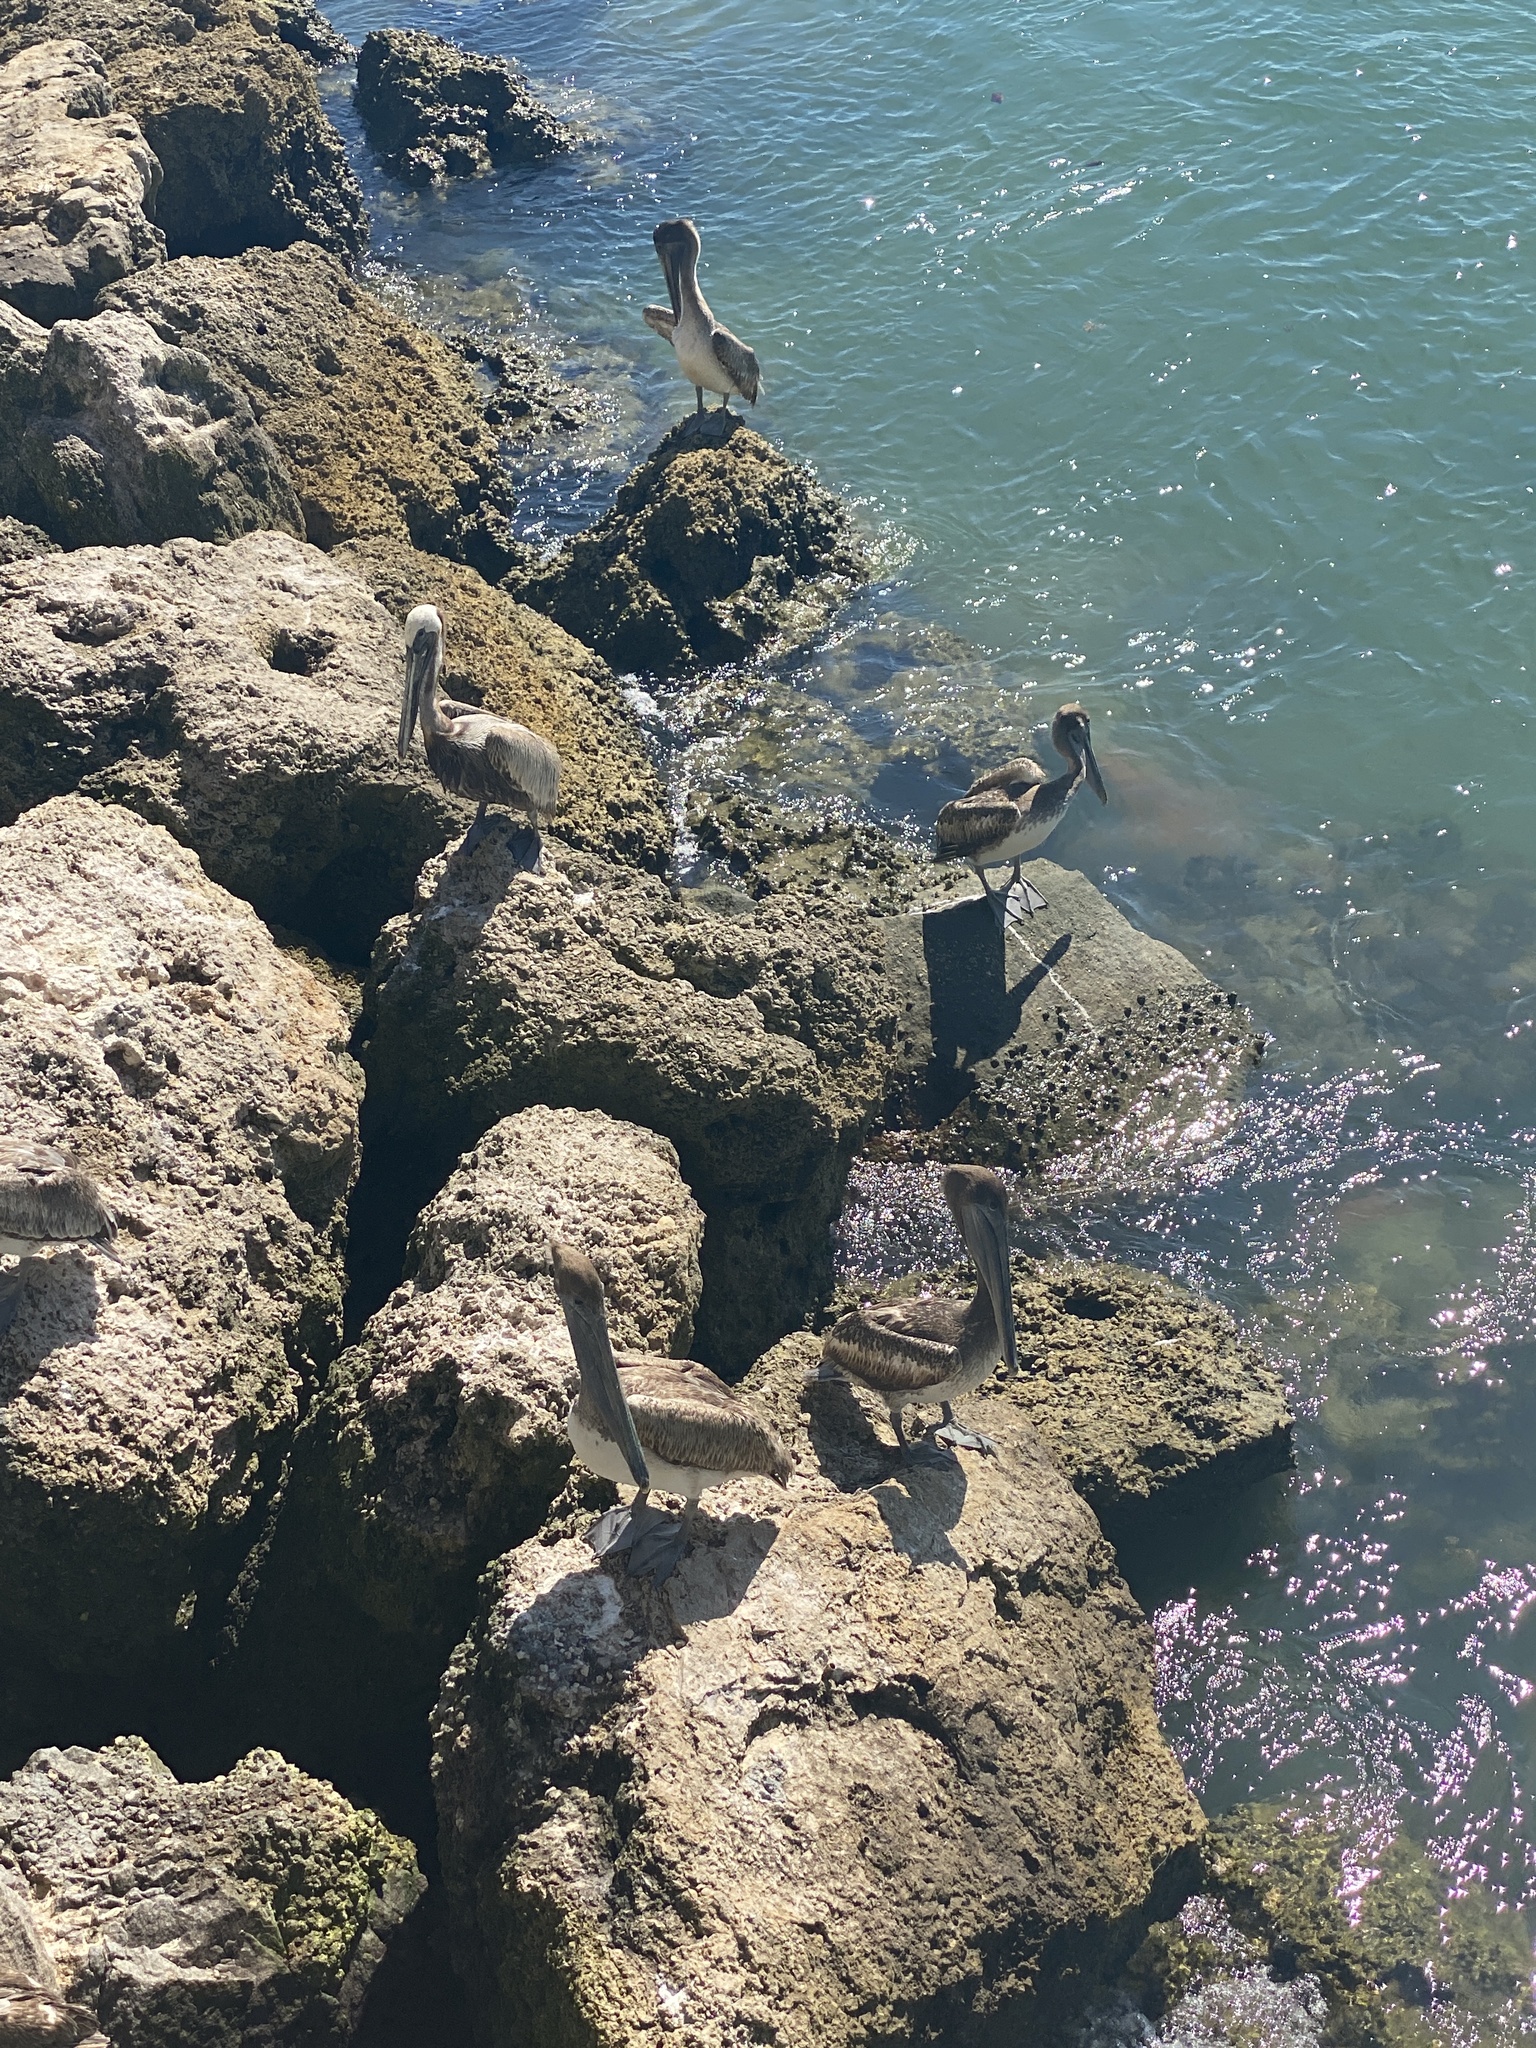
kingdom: Animalia
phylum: Chordata
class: Aves
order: Pelecaniformes
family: Pelecanidae
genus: Pelecanus
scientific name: Pelecanus occidentalis
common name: Brown pelican
